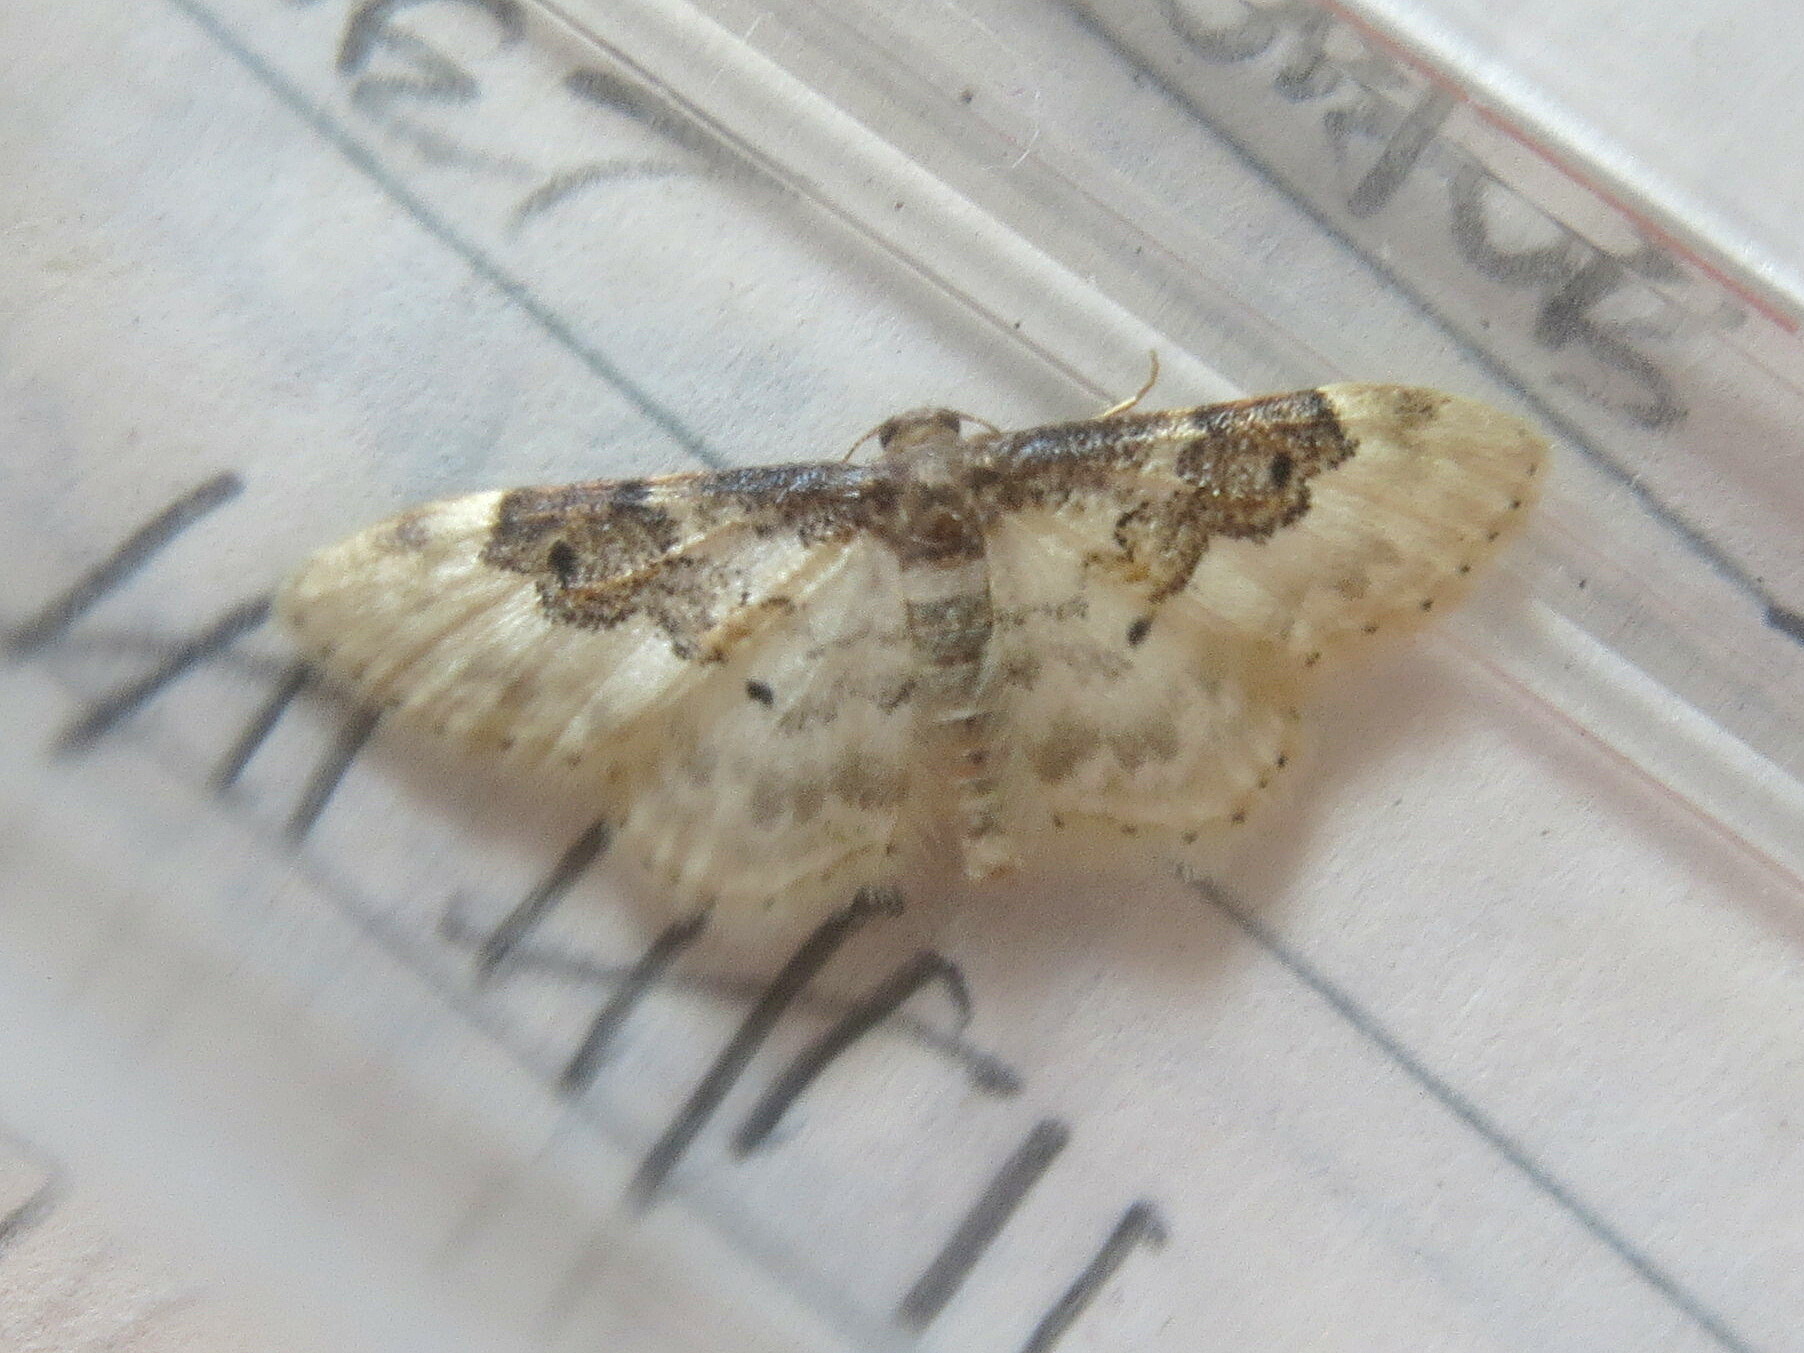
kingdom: Animalia
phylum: Arthropoda
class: Insecta
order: Lepidoptera
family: Geometridae
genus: Idaea
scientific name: Idaea rusticata
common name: Least carpet
